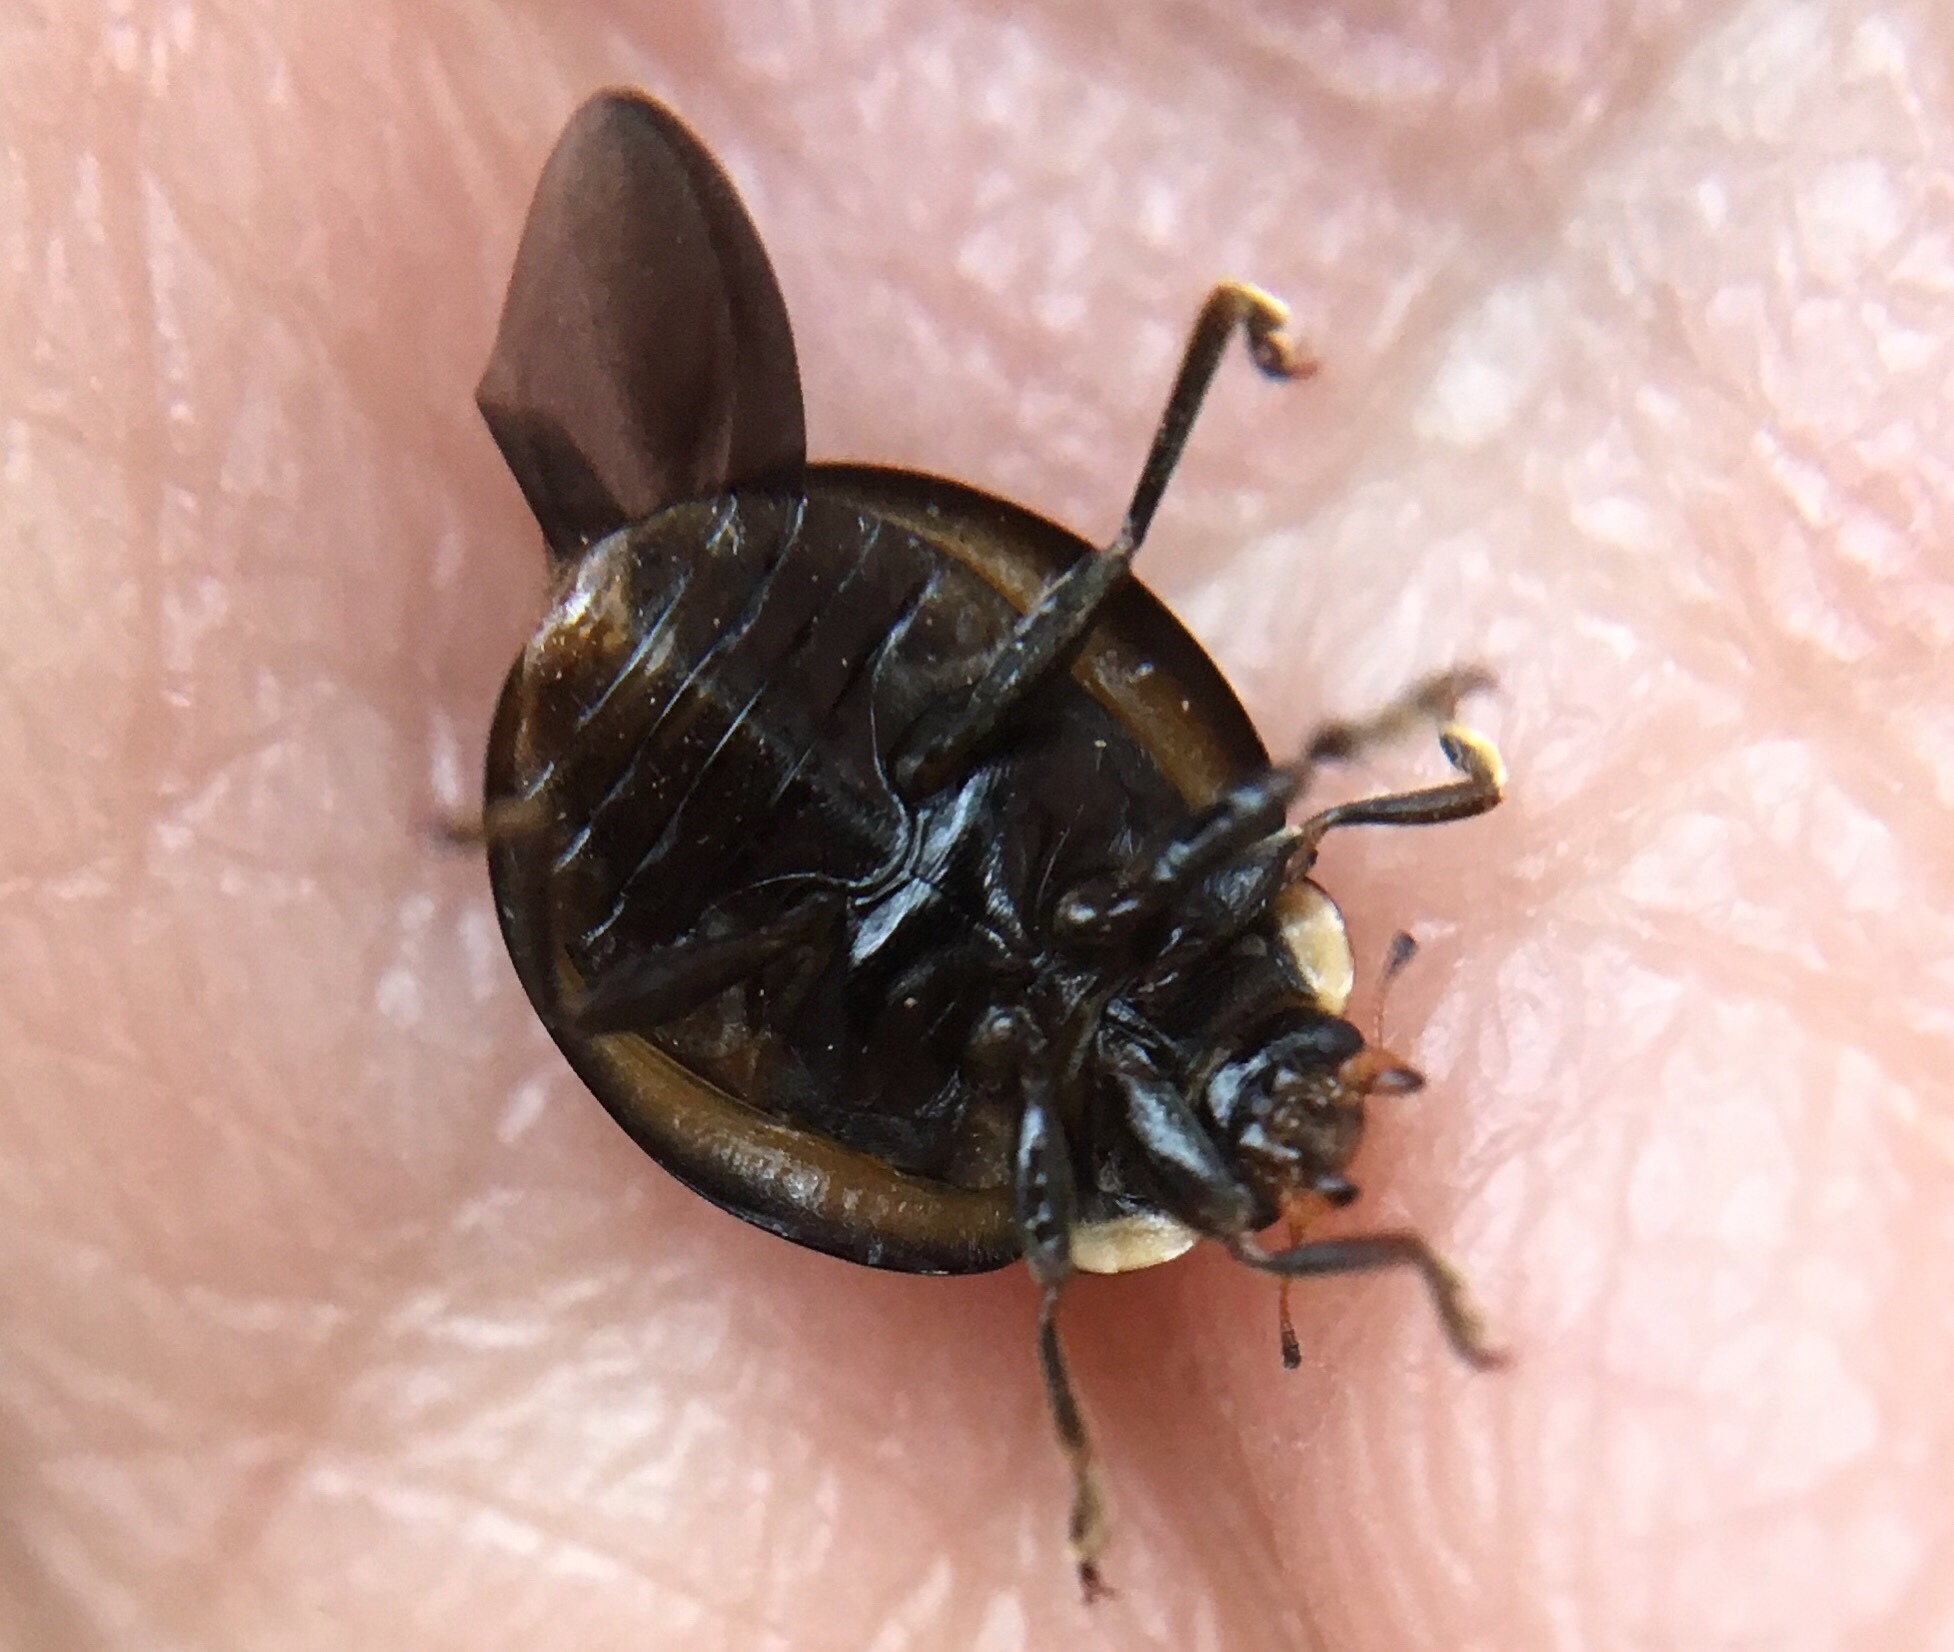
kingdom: Animalia
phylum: Arthropoda
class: Insecta
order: Coleoptera
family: Coccinellidae
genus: Harmonia
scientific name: Harmonia axyridis
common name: Harlequin ladybird
